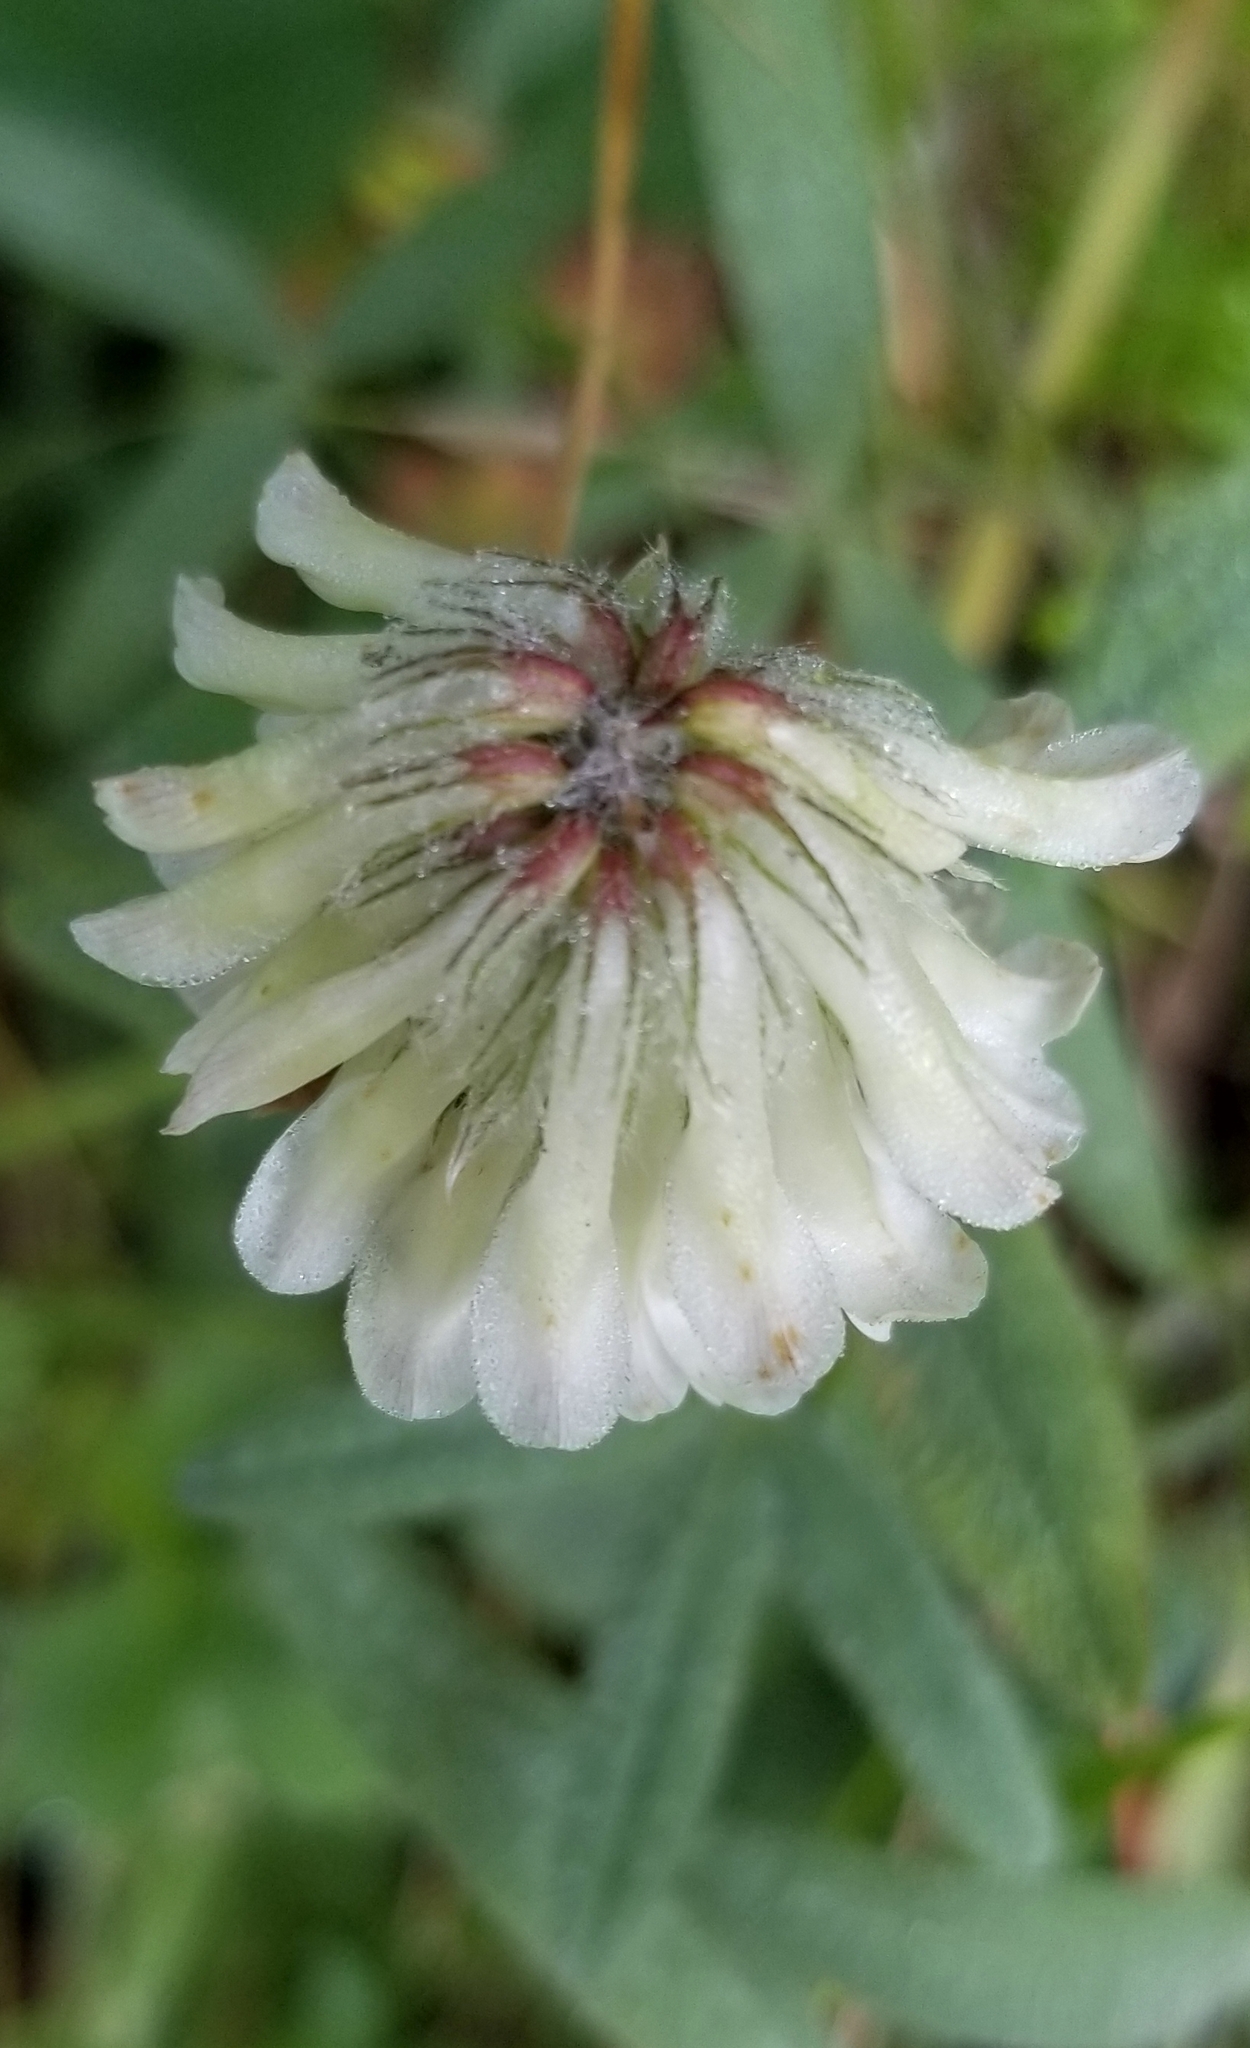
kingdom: Plantae
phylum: Tracheophyta
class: Magnoliopsida
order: Fabales
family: Fabaceae
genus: Trifolium
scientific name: Trifolium eriocephalum
